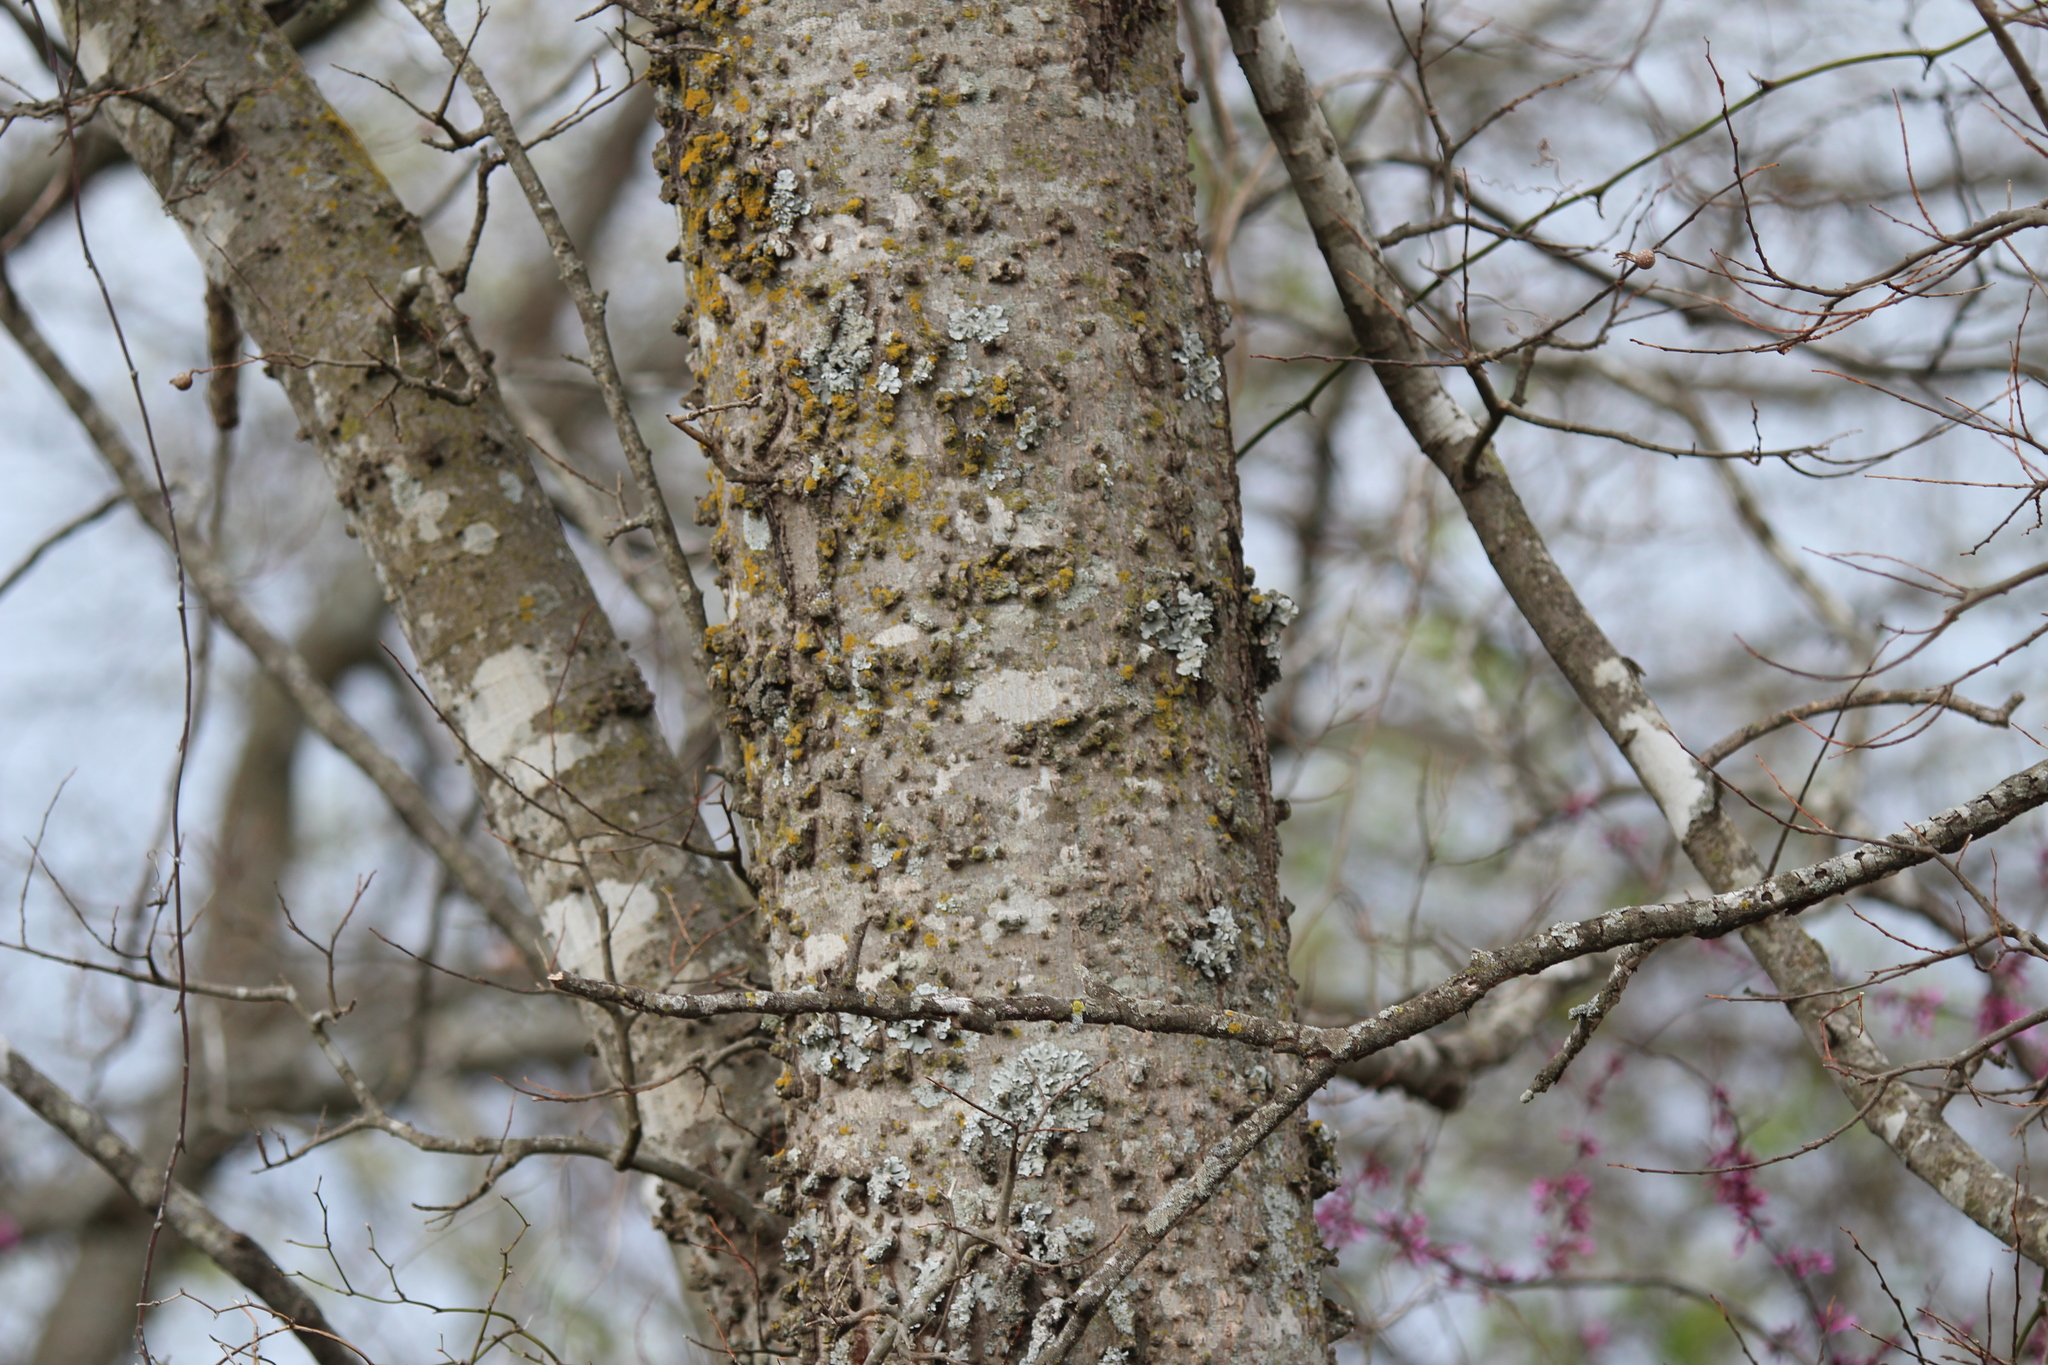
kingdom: Plantae
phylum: Tracheophyta
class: Magnoliopsida
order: Rosales
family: Cannabaceae
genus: Celtis
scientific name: Celtis occidentalis
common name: Common hackberry
